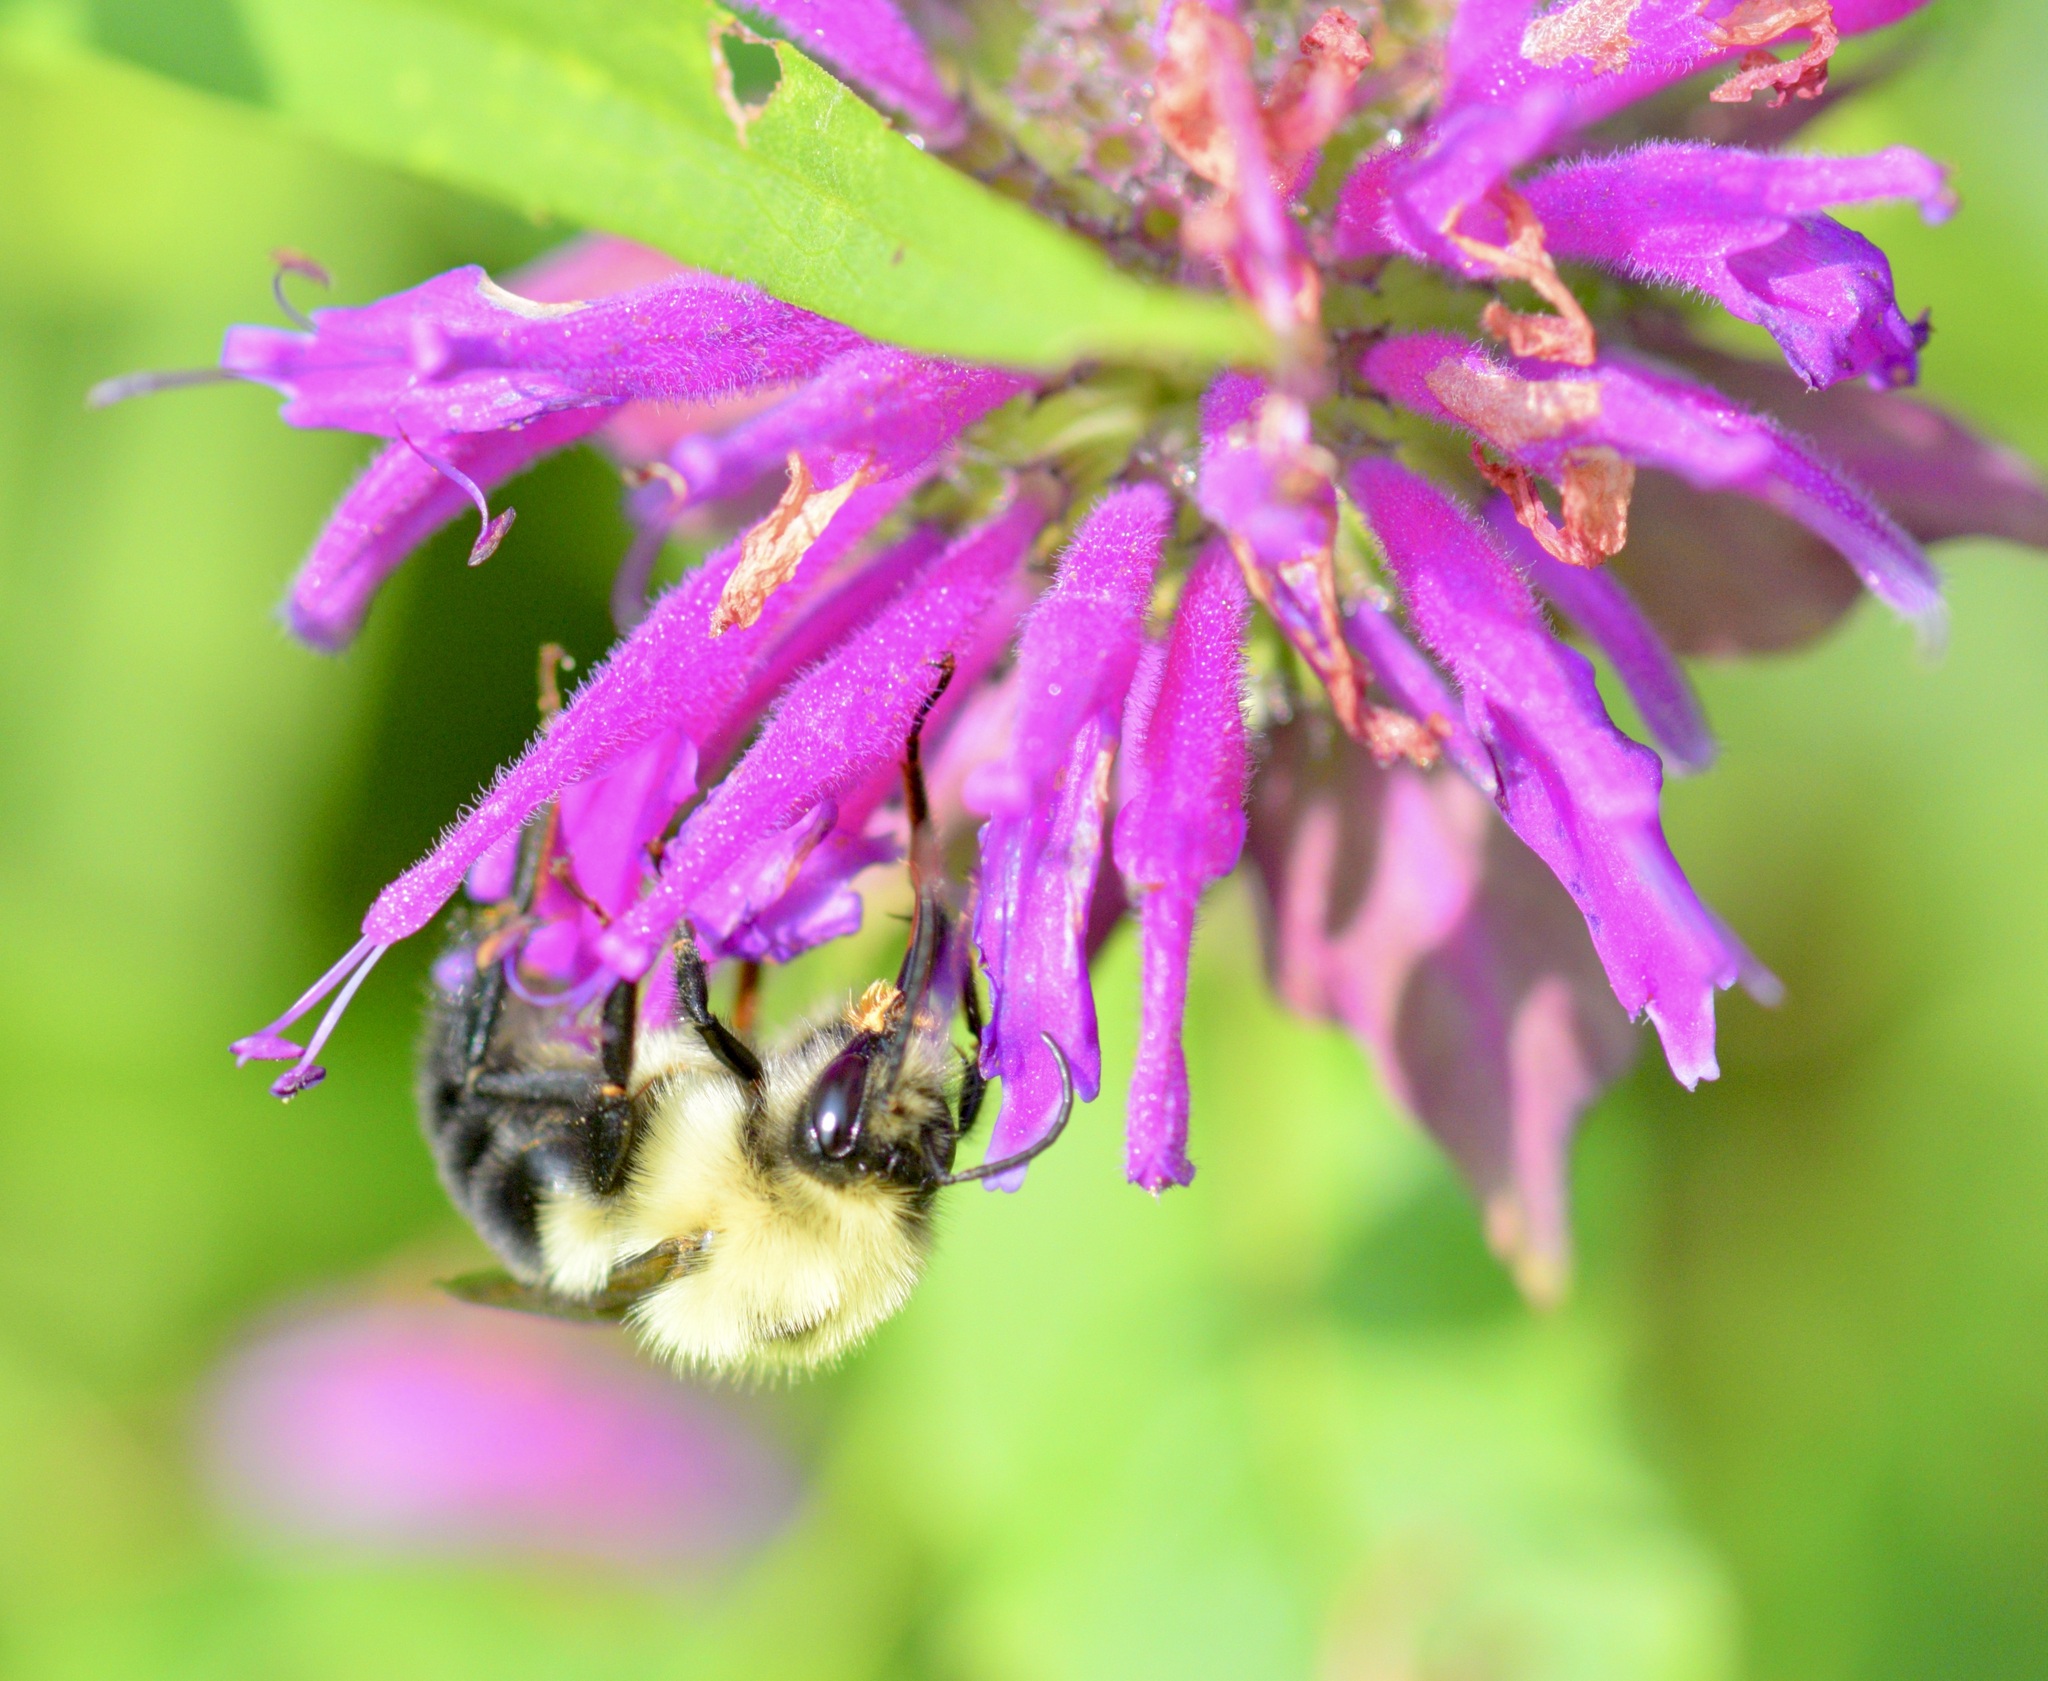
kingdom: Animalia
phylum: Arthropoda
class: Insecta
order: Hymenoptera
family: Apidae
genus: Bombus
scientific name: Bombus bimaculatus
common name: Two-spotted bumble bee
